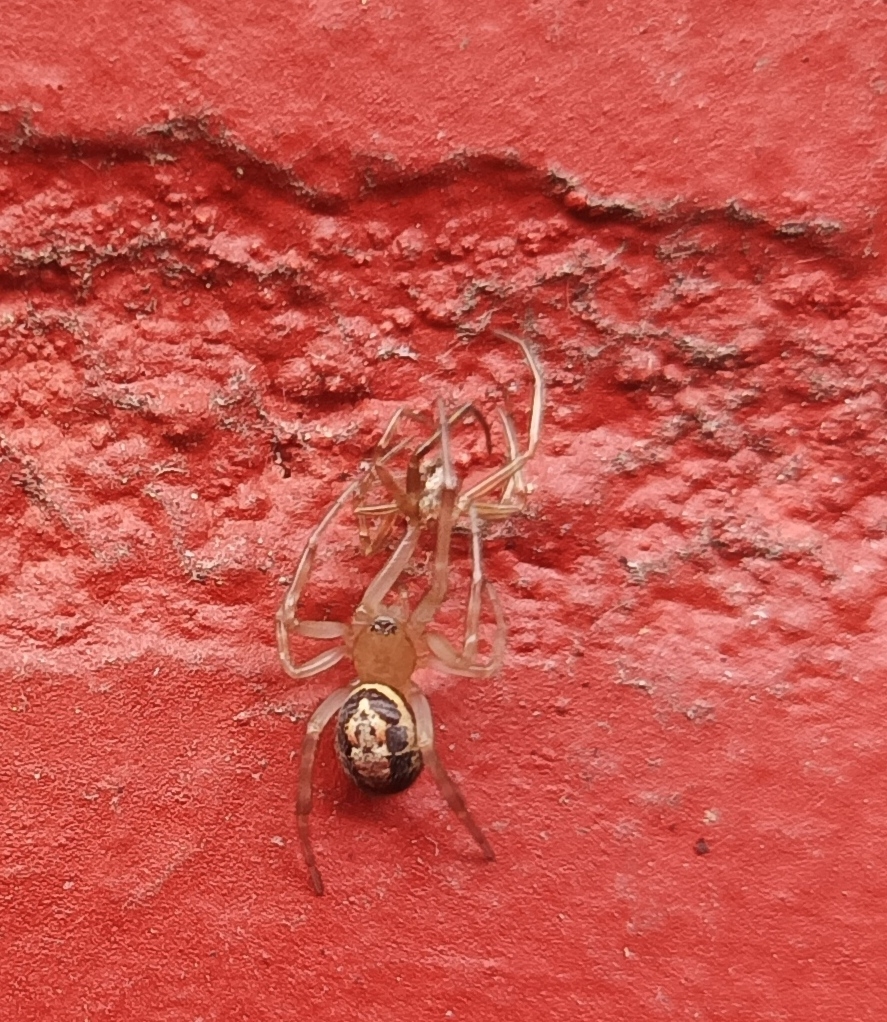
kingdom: Animalia
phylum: Arthropoda
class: Arachnida
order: Araneae
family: Theridiidae
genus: Steatoda
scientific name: Steatoda nobilis
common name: Cobweb weaver
